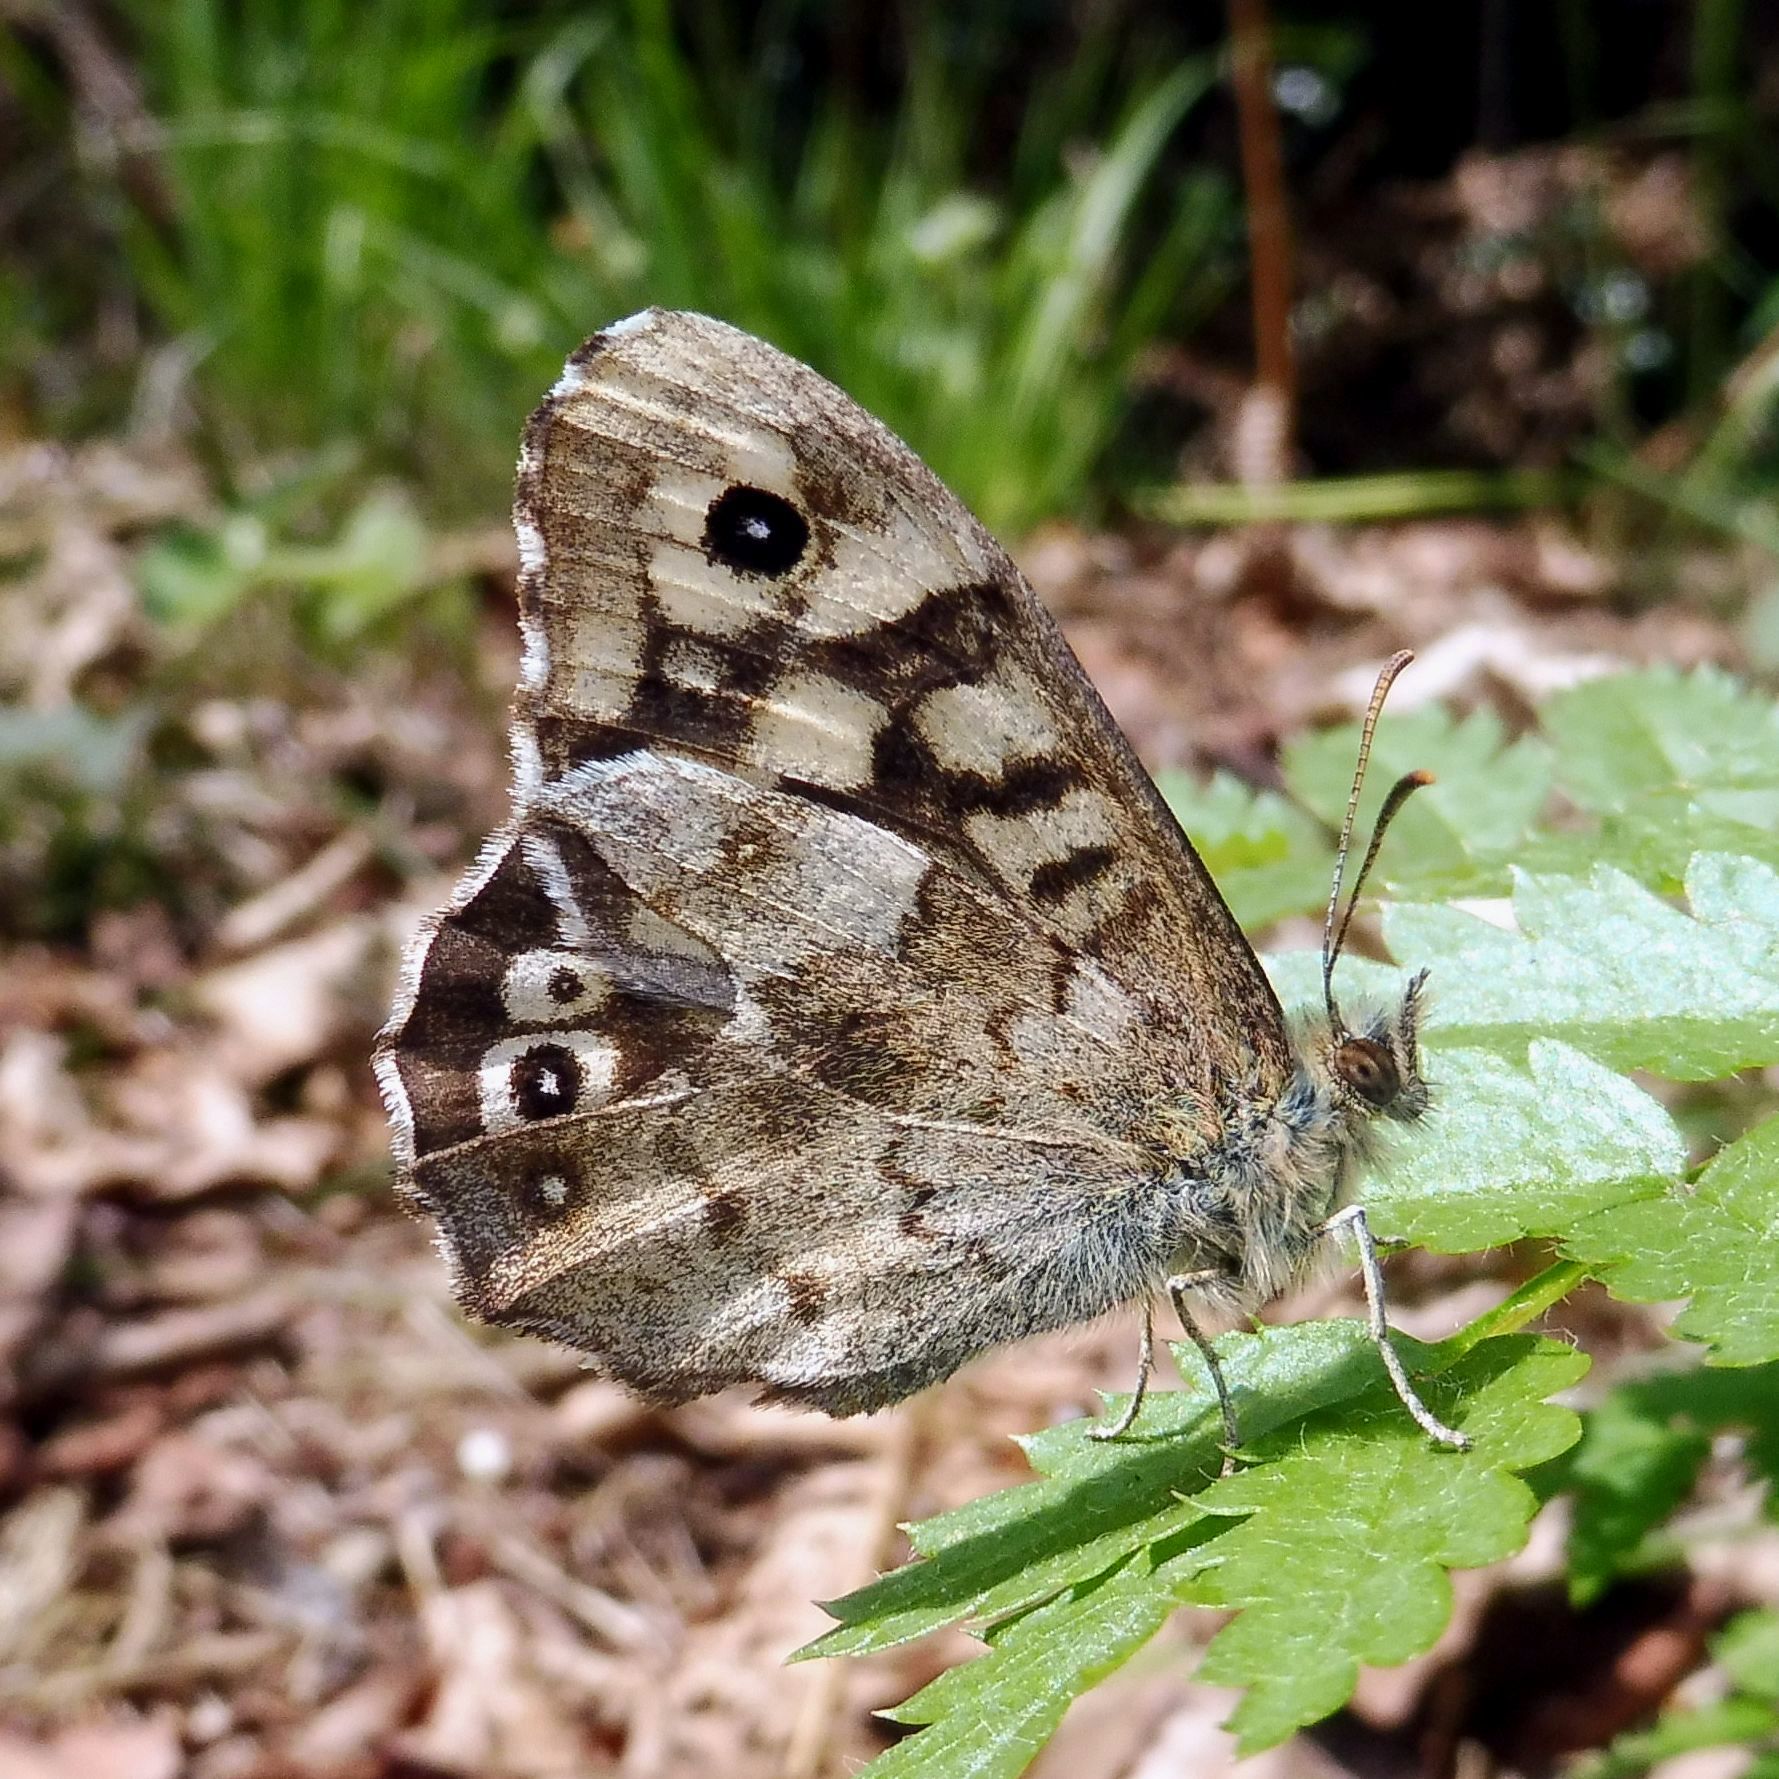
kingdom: Animalia
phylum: Arthropoda
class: Insecta
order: Lepidoptera
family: Nymphalidae
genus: Pararge
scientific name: Pararge aegeria
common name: Speckled wood
